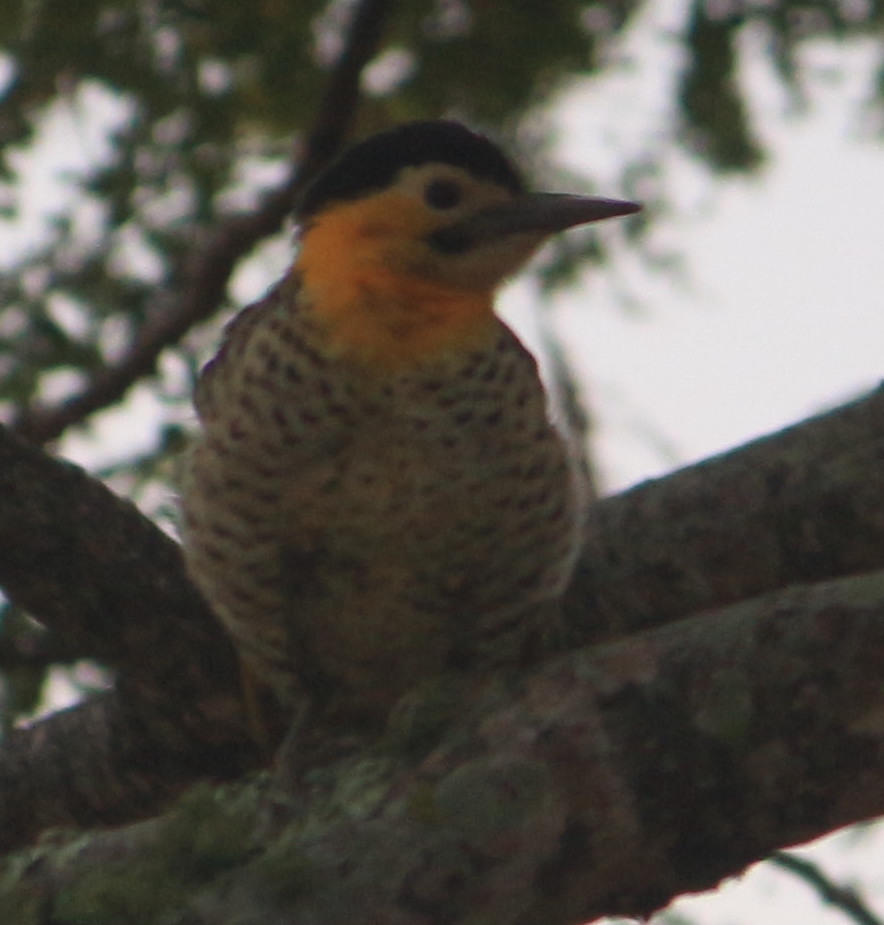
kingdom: Animalia
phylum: Chordata
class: Aves
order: Piciformes
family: Picidae
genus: Colaptes
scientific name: Colaptes campestris
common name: Campo flicker
